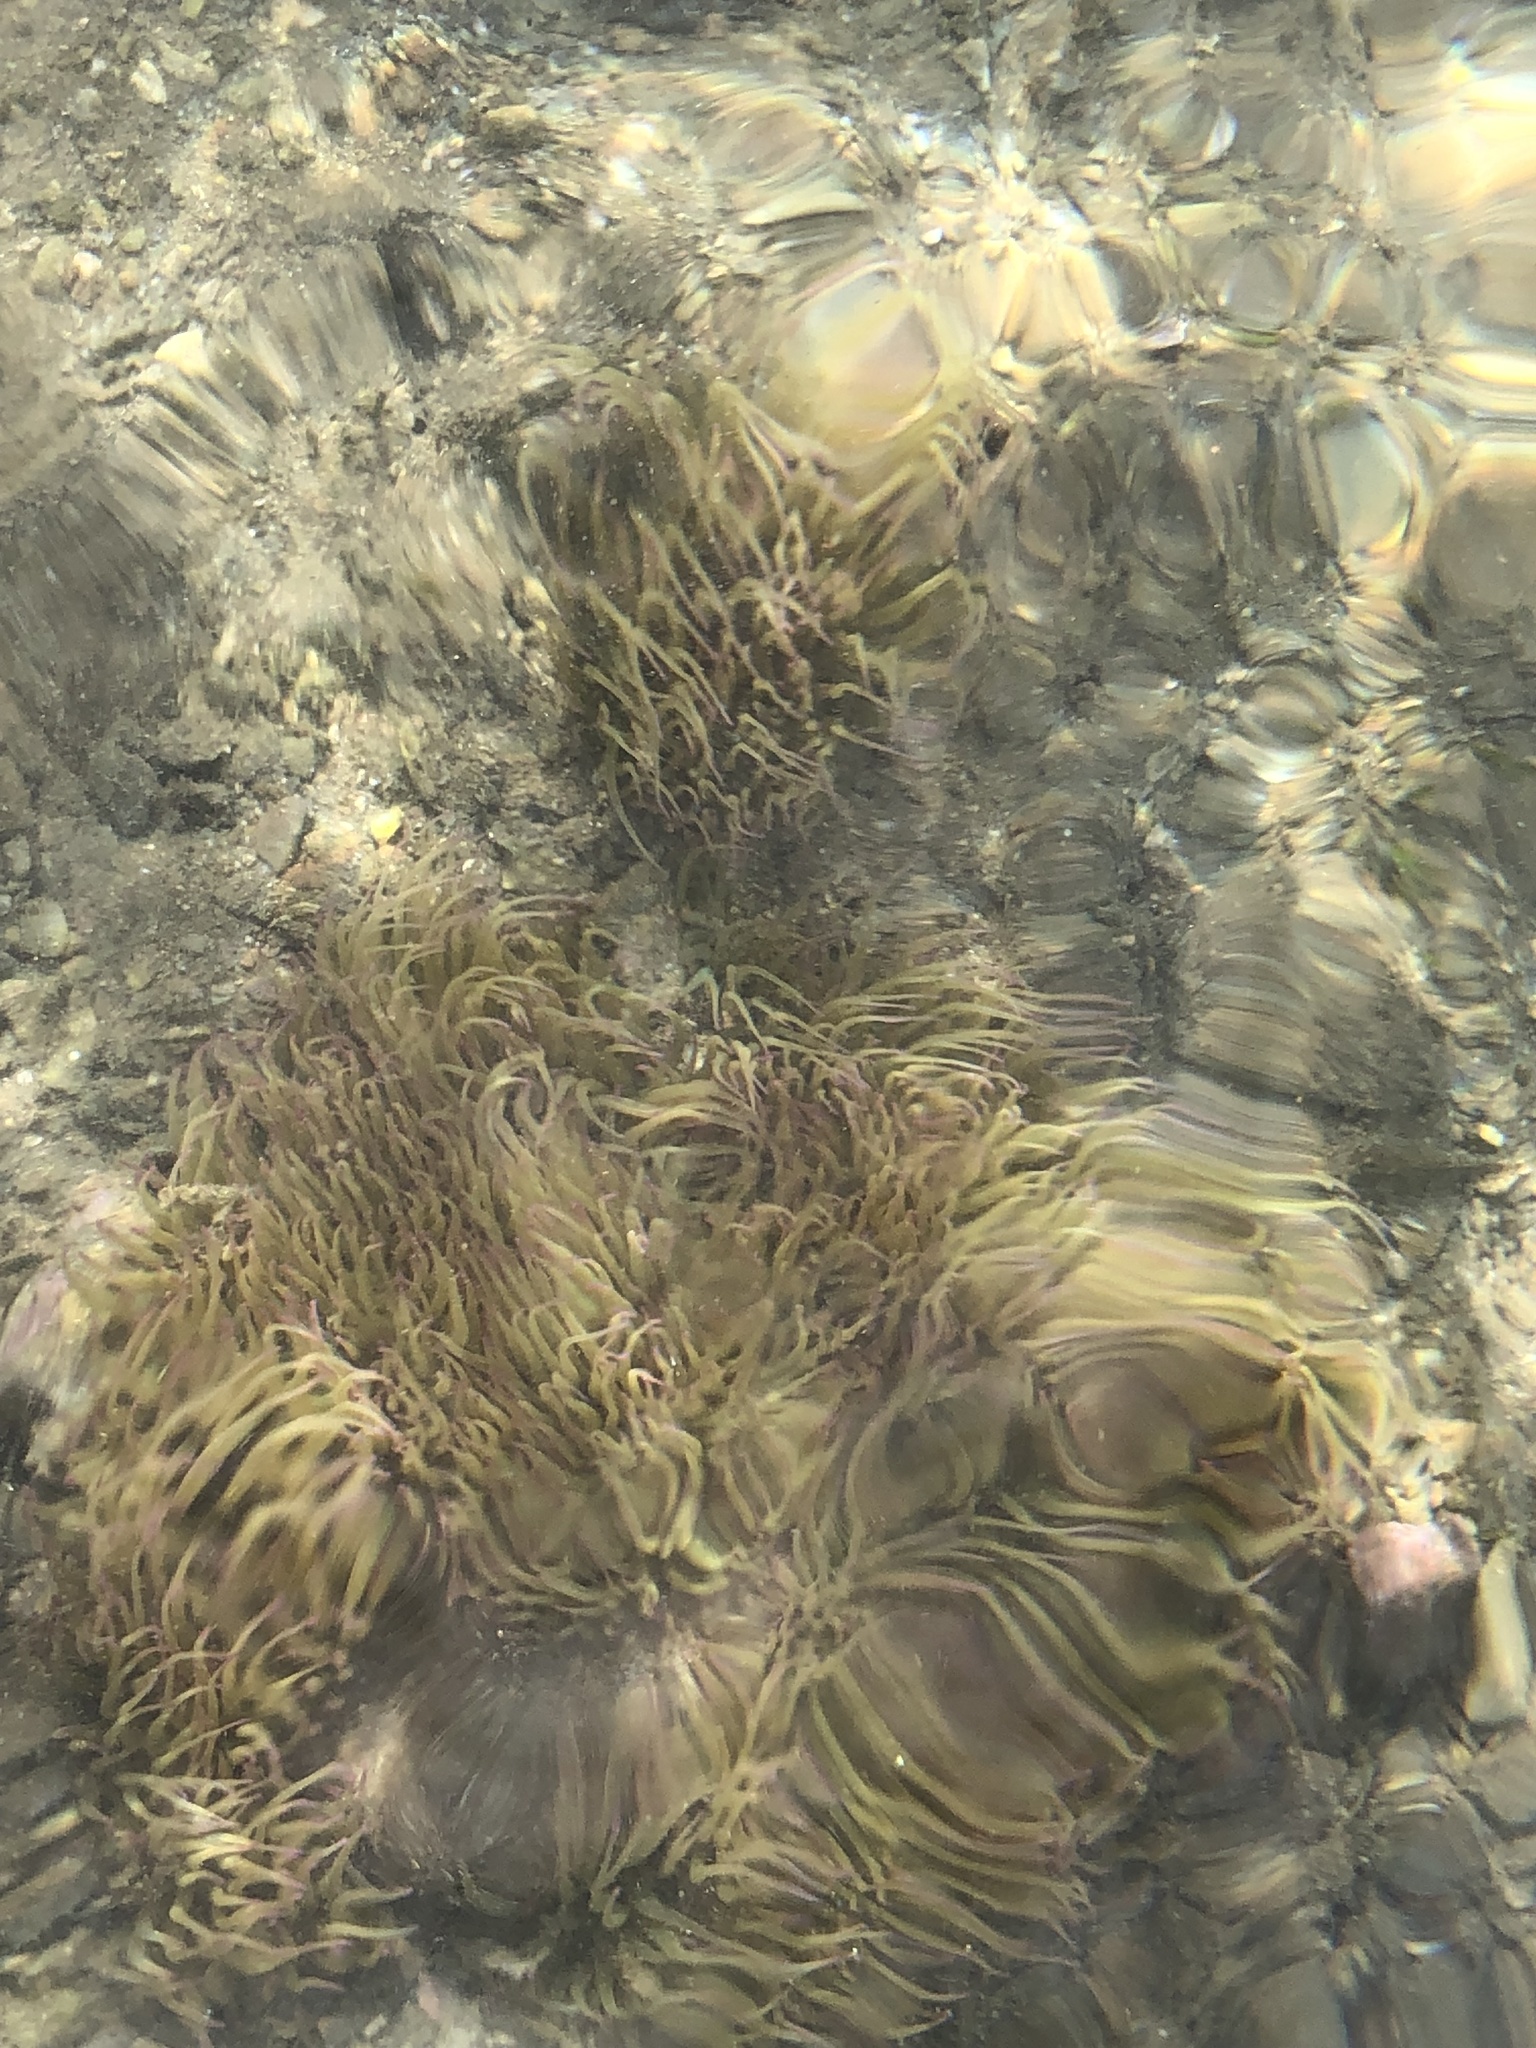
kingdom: Animalia
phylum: Cnidaria
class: Anthozoa
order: Actiniaria
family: Actiniidae
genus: Anemonia
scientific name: Anemonia viridis
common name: Snakelocks anemone
